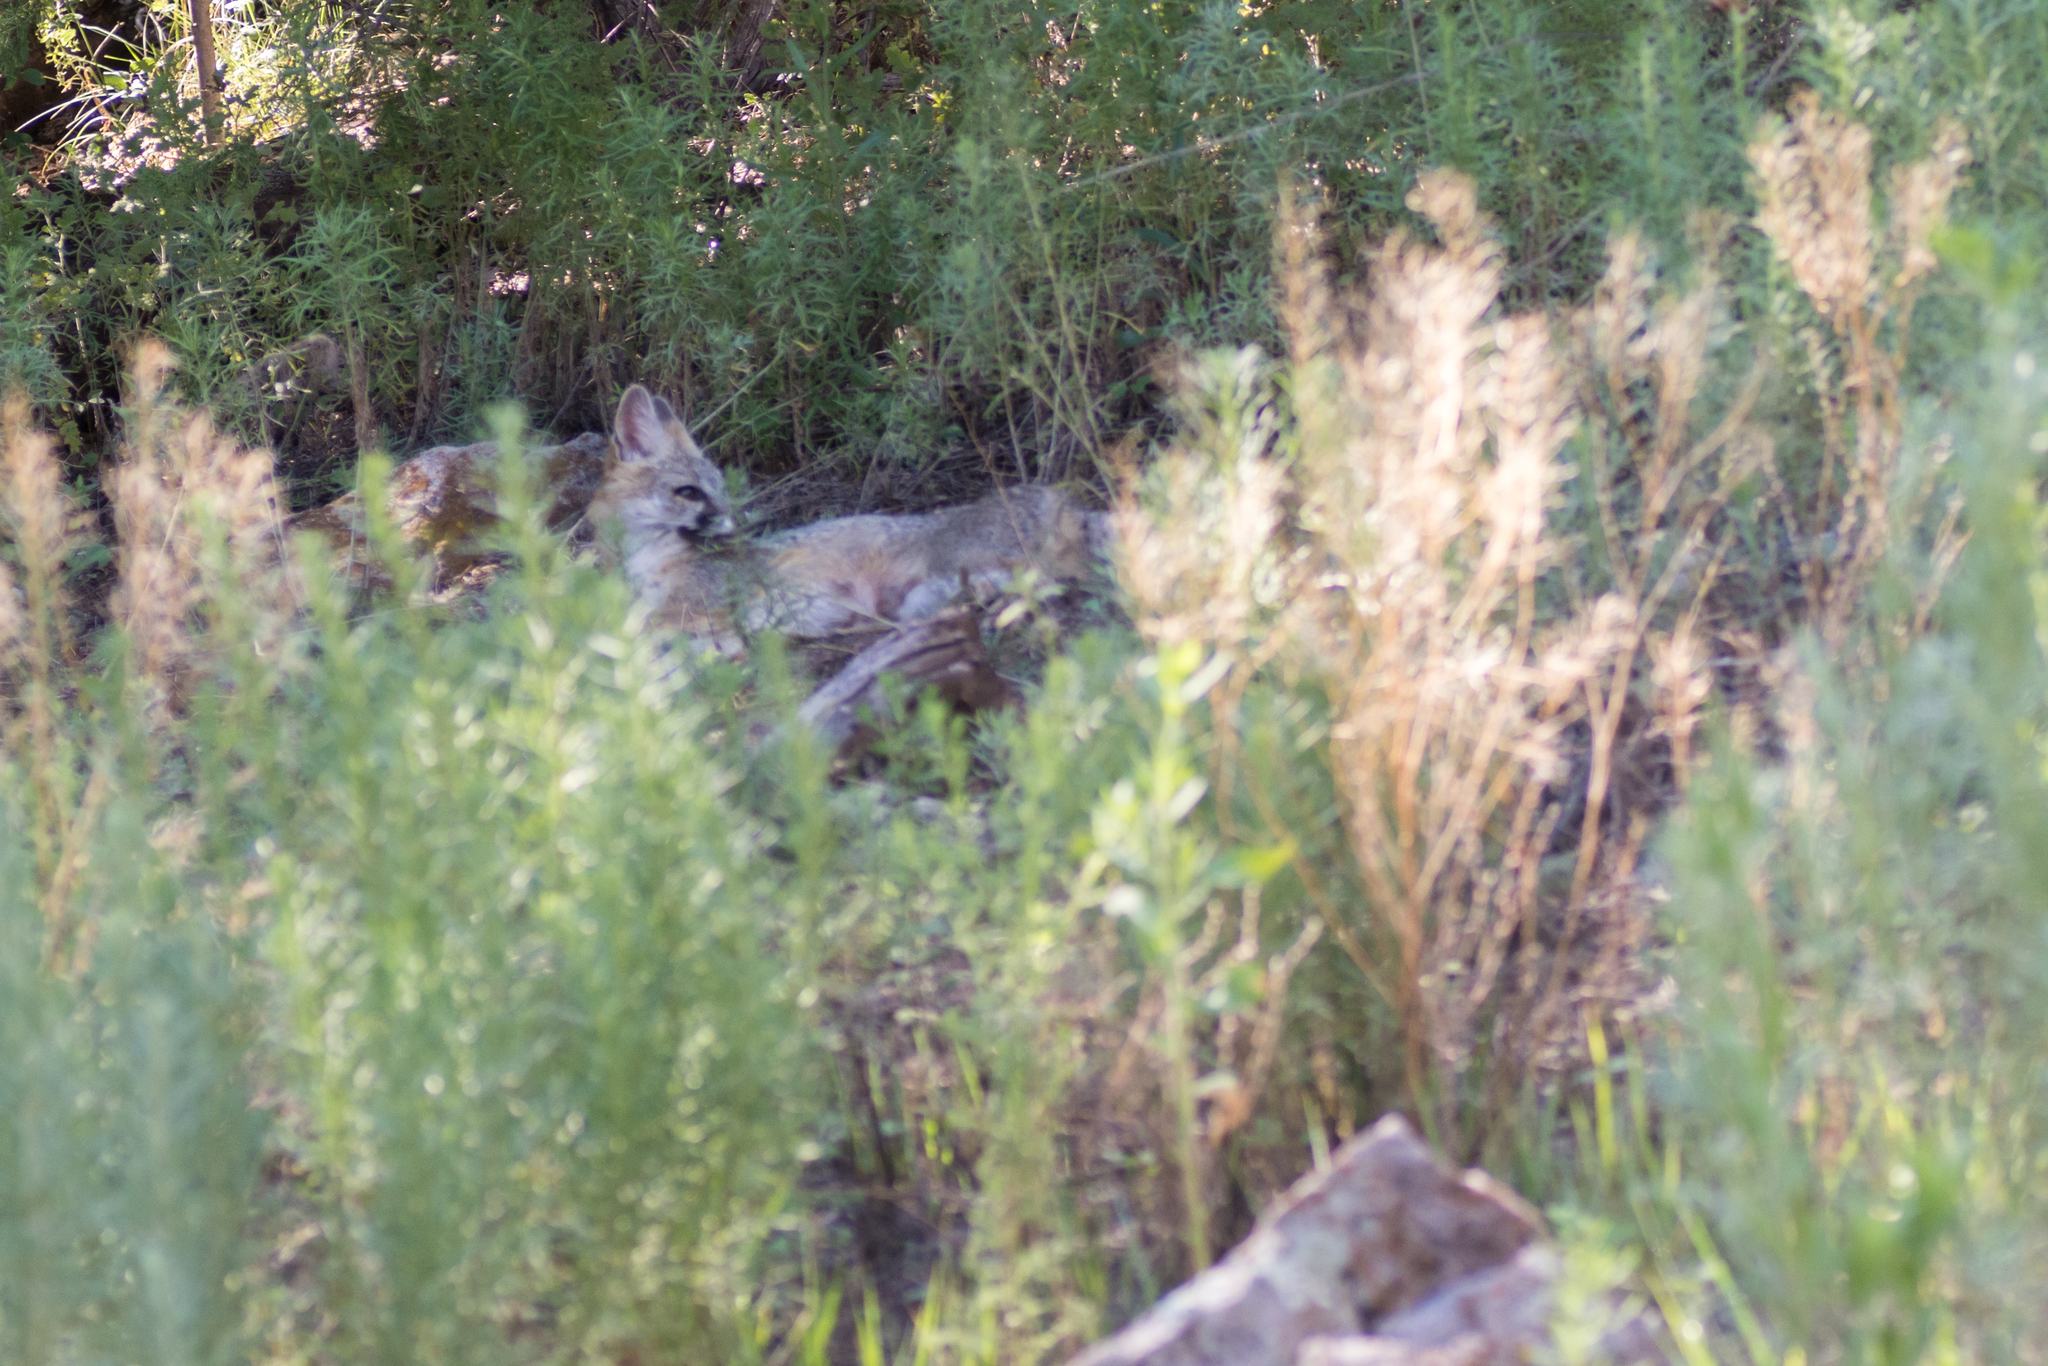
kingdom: Animalia
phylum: Chordata
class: Mammalia
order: Carnivora
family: Canidae
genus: Urocyon
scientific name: Urocyon cinereoargenteus
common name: Gray fox
